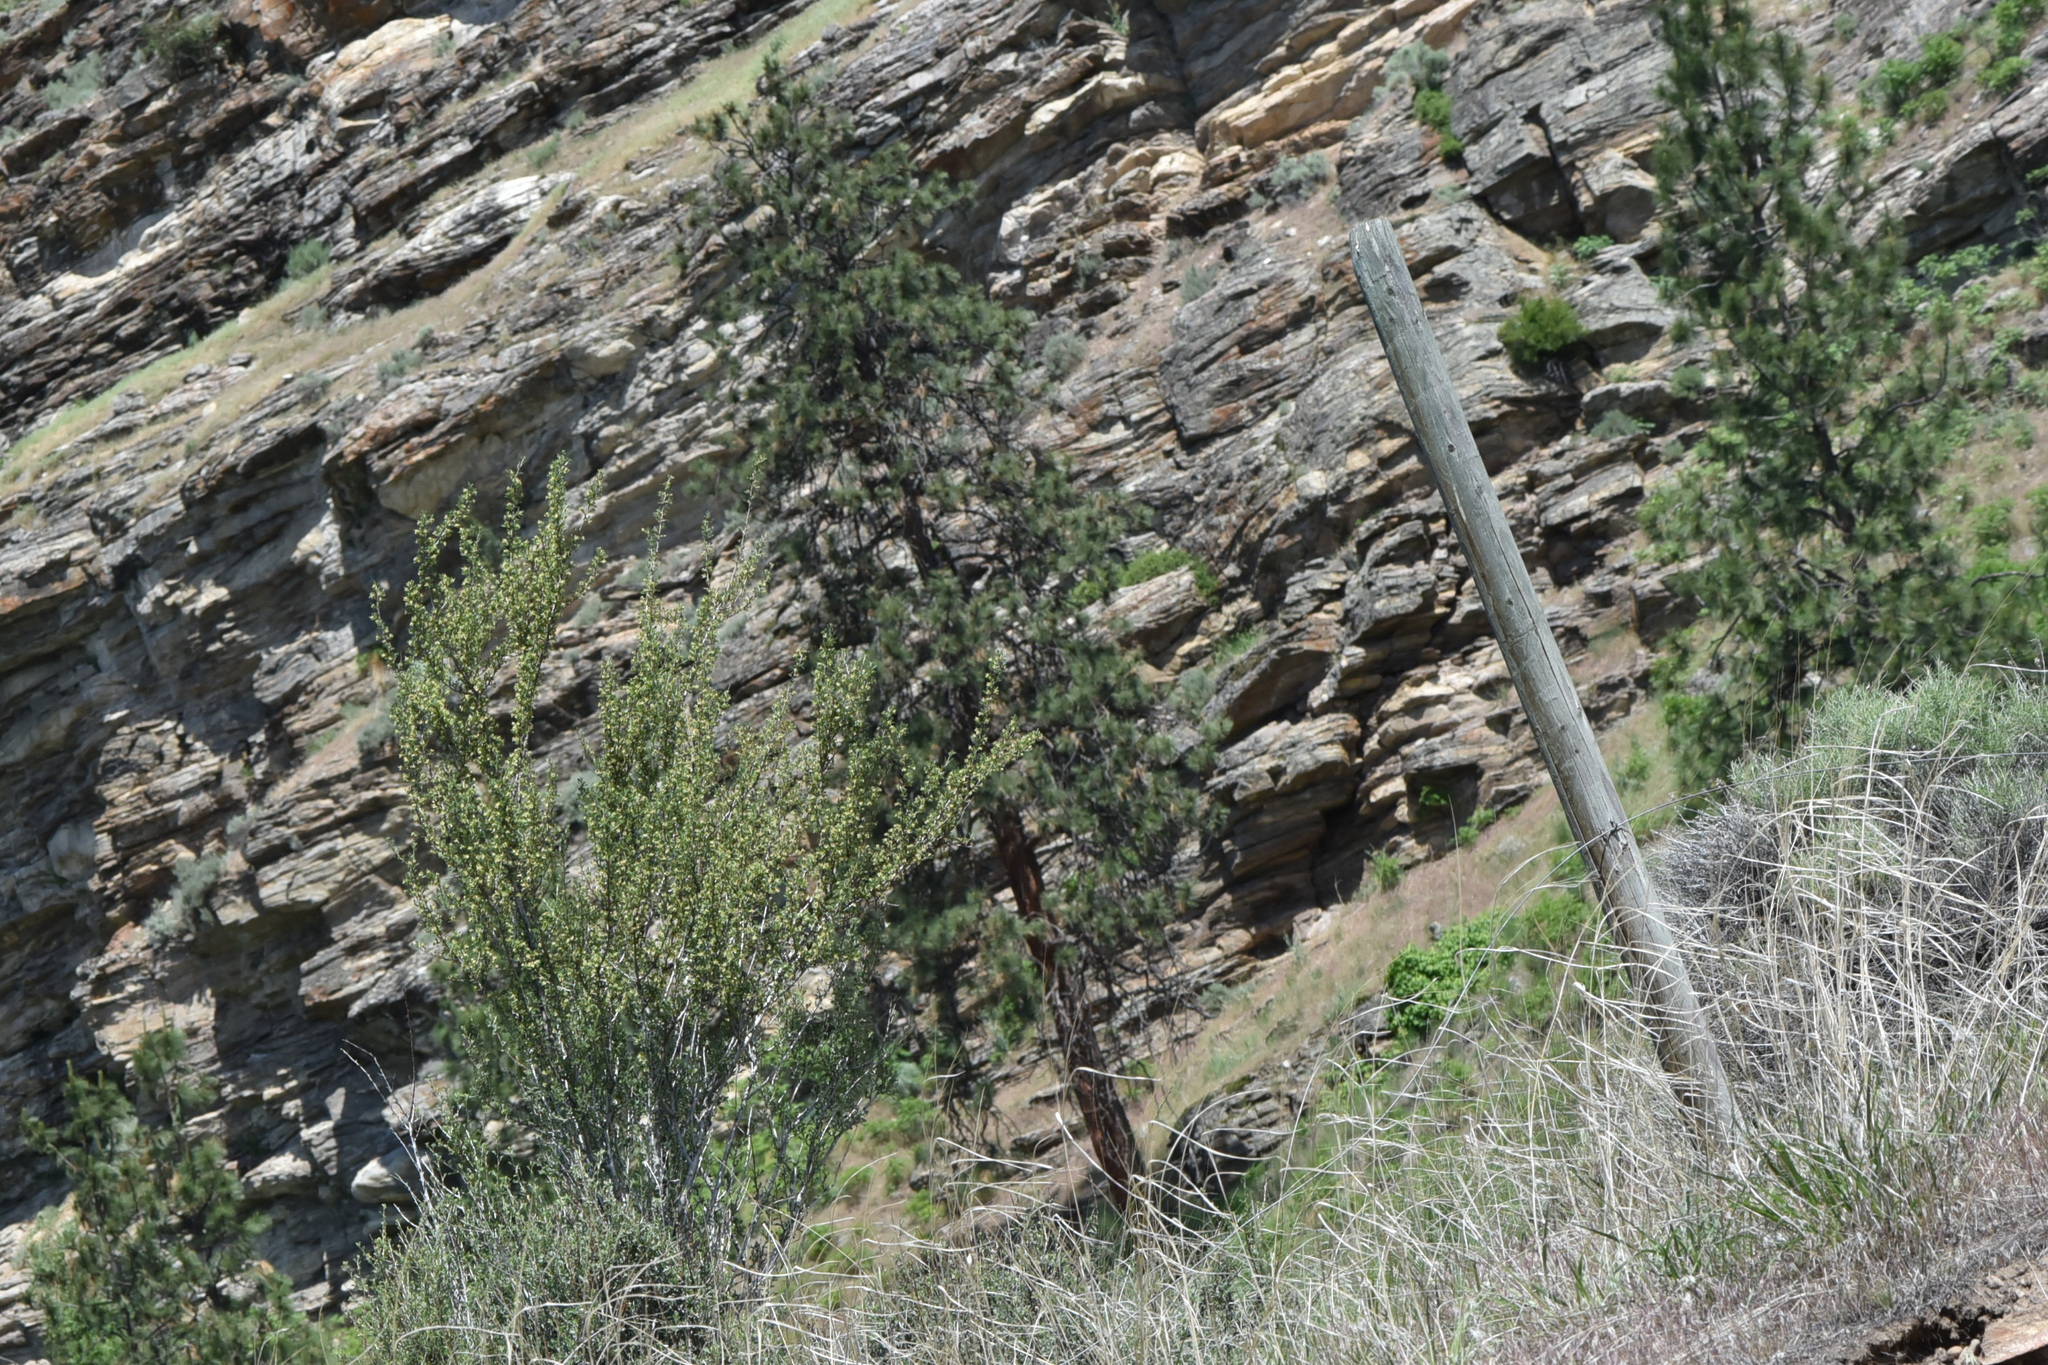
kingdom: Plantae
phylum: Tracheophyta
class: Pinopsida
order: Pinales
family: Pinaceae
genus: Pinus
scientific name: Pinus ponderosa
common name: Western yellow-pine
